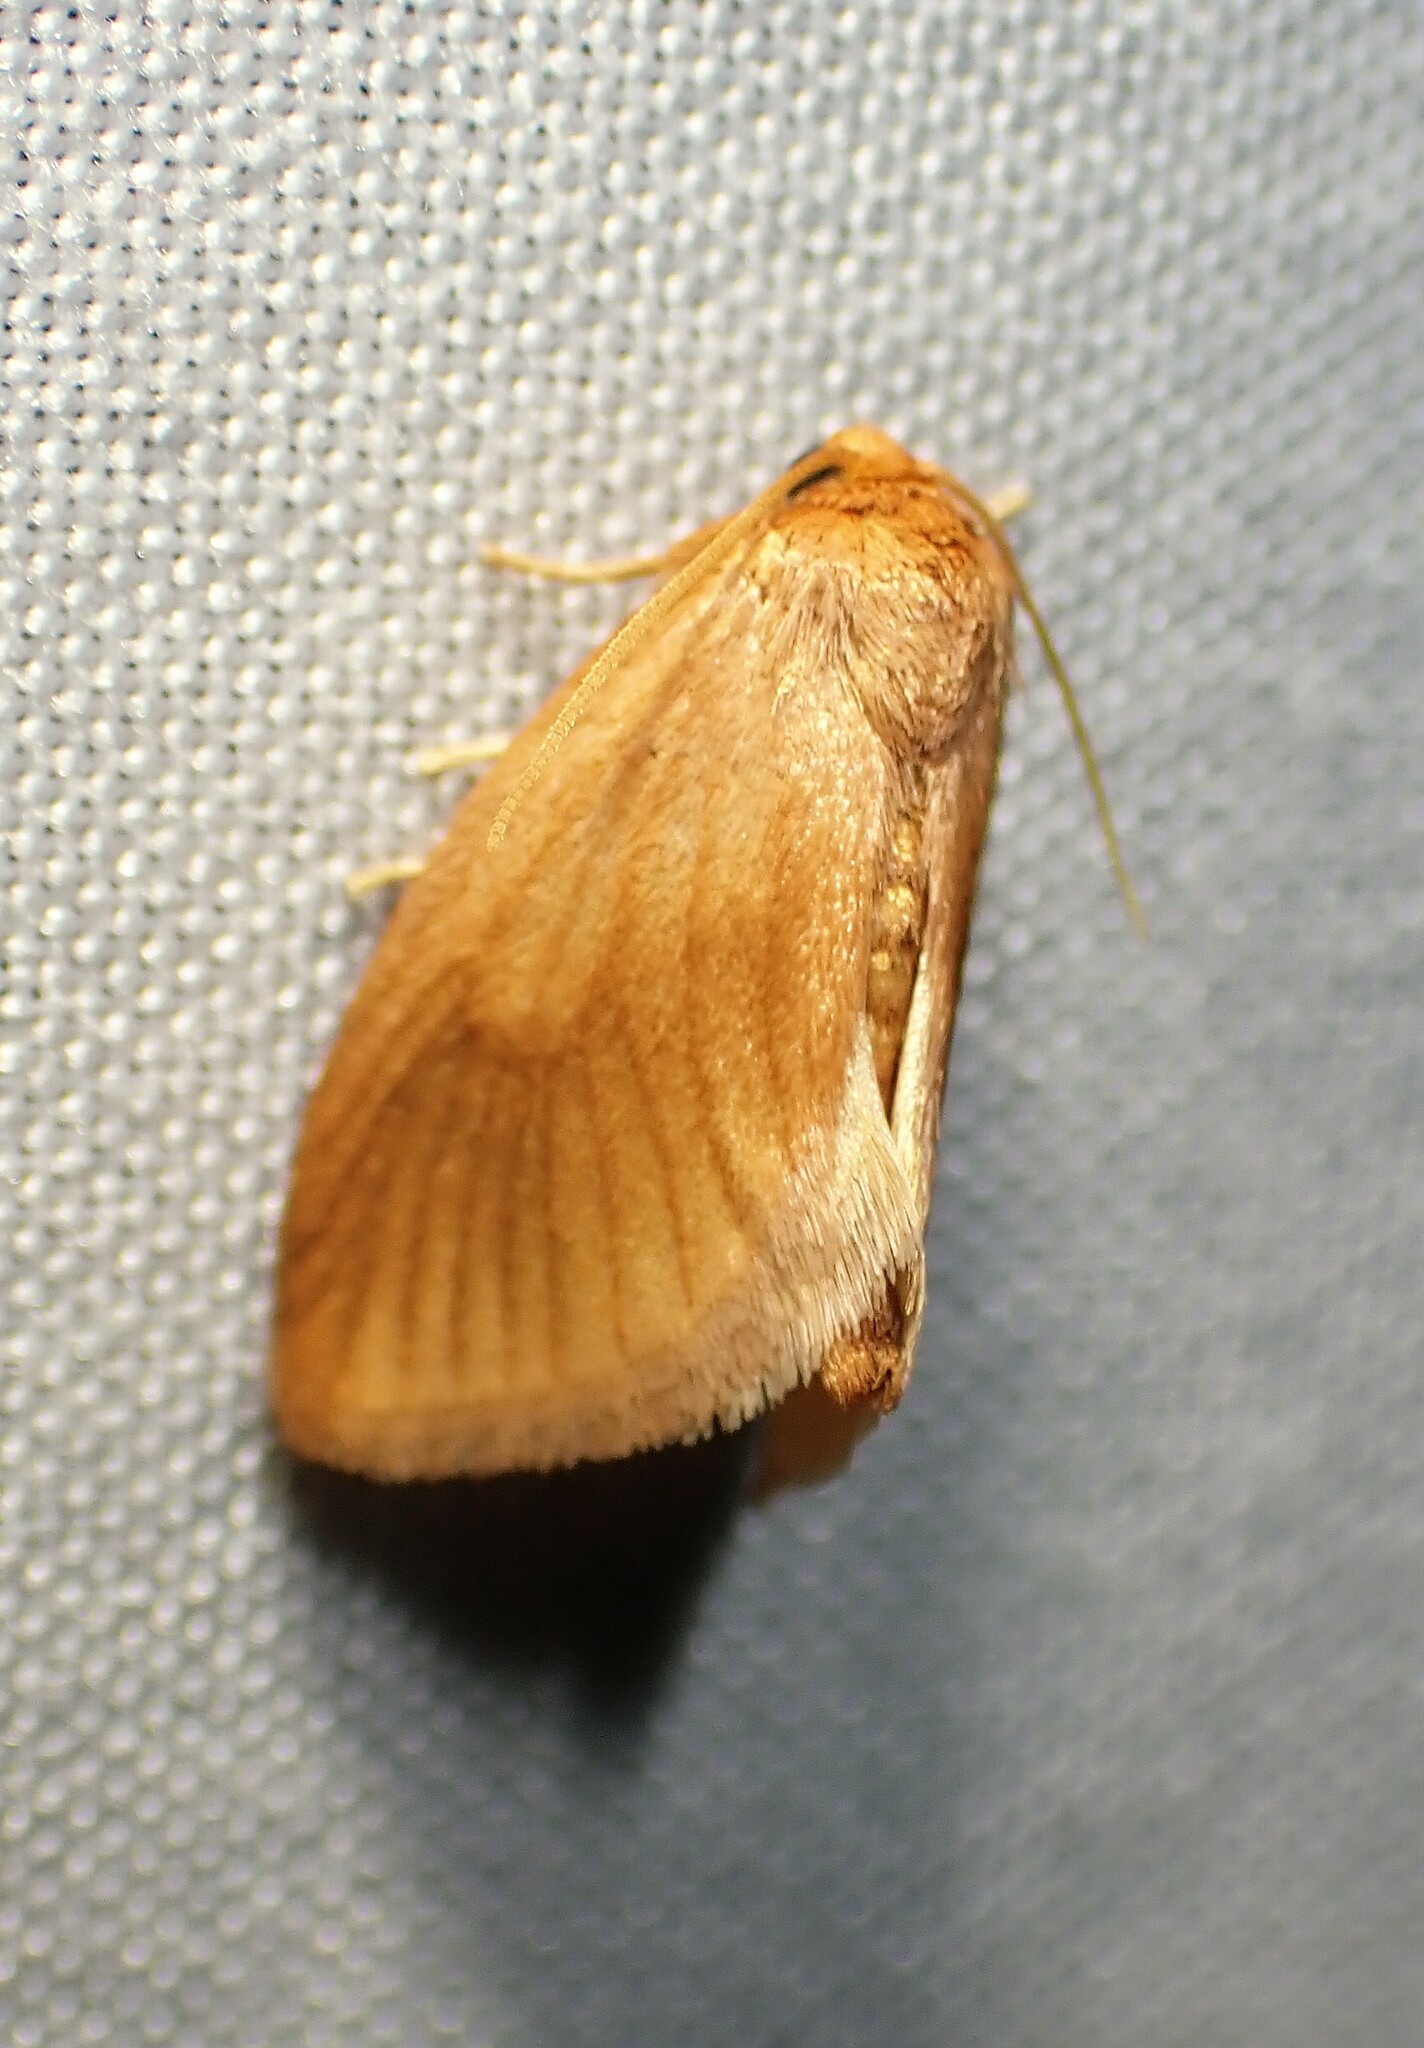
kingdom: Animalia
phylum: Arthropoda
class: Insecta
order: Lepidoptera
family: Limacodidae
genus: Tortricidia
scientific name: Tortricidia testacea
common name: Early button slug moth
